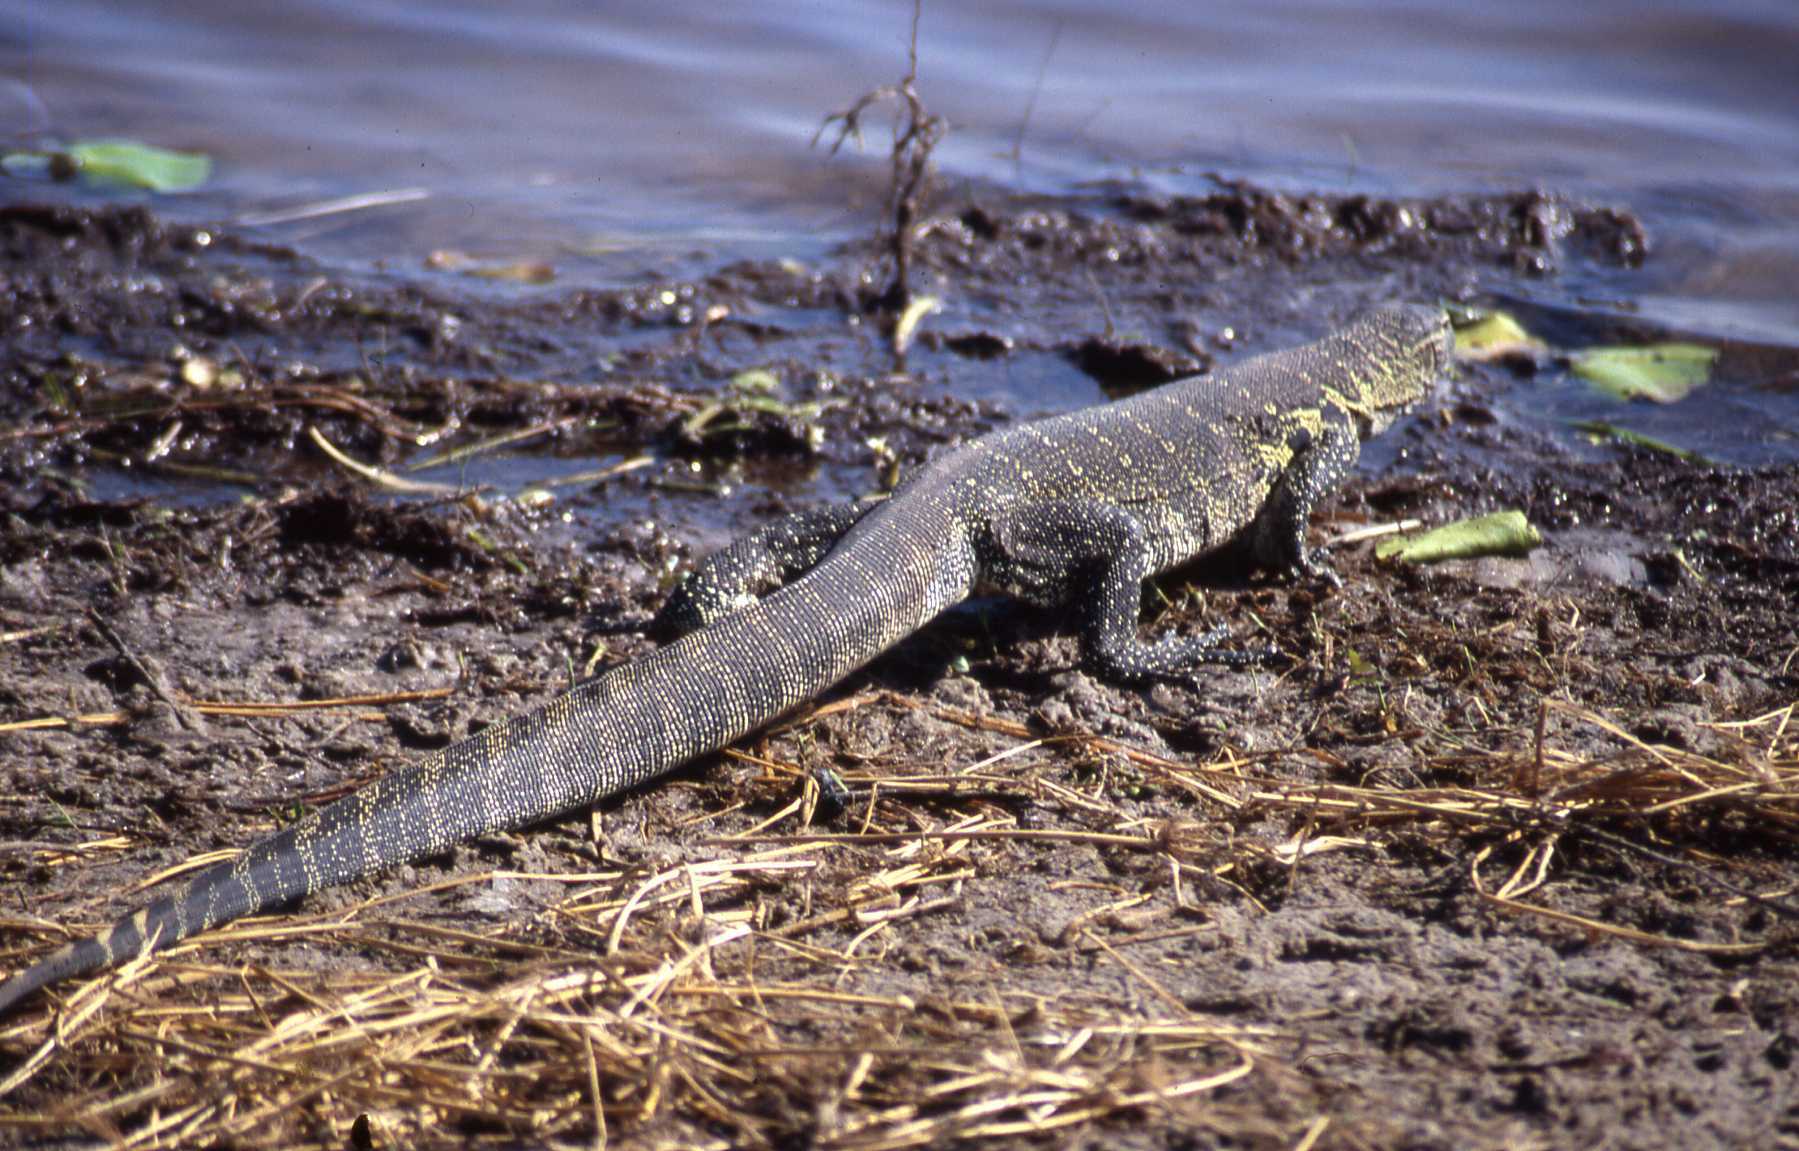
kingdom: Animalia
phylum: Chordata
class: Squamata
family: Varanidae
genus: Varanus
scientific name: Varanus niloticus
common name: Nile monitor
